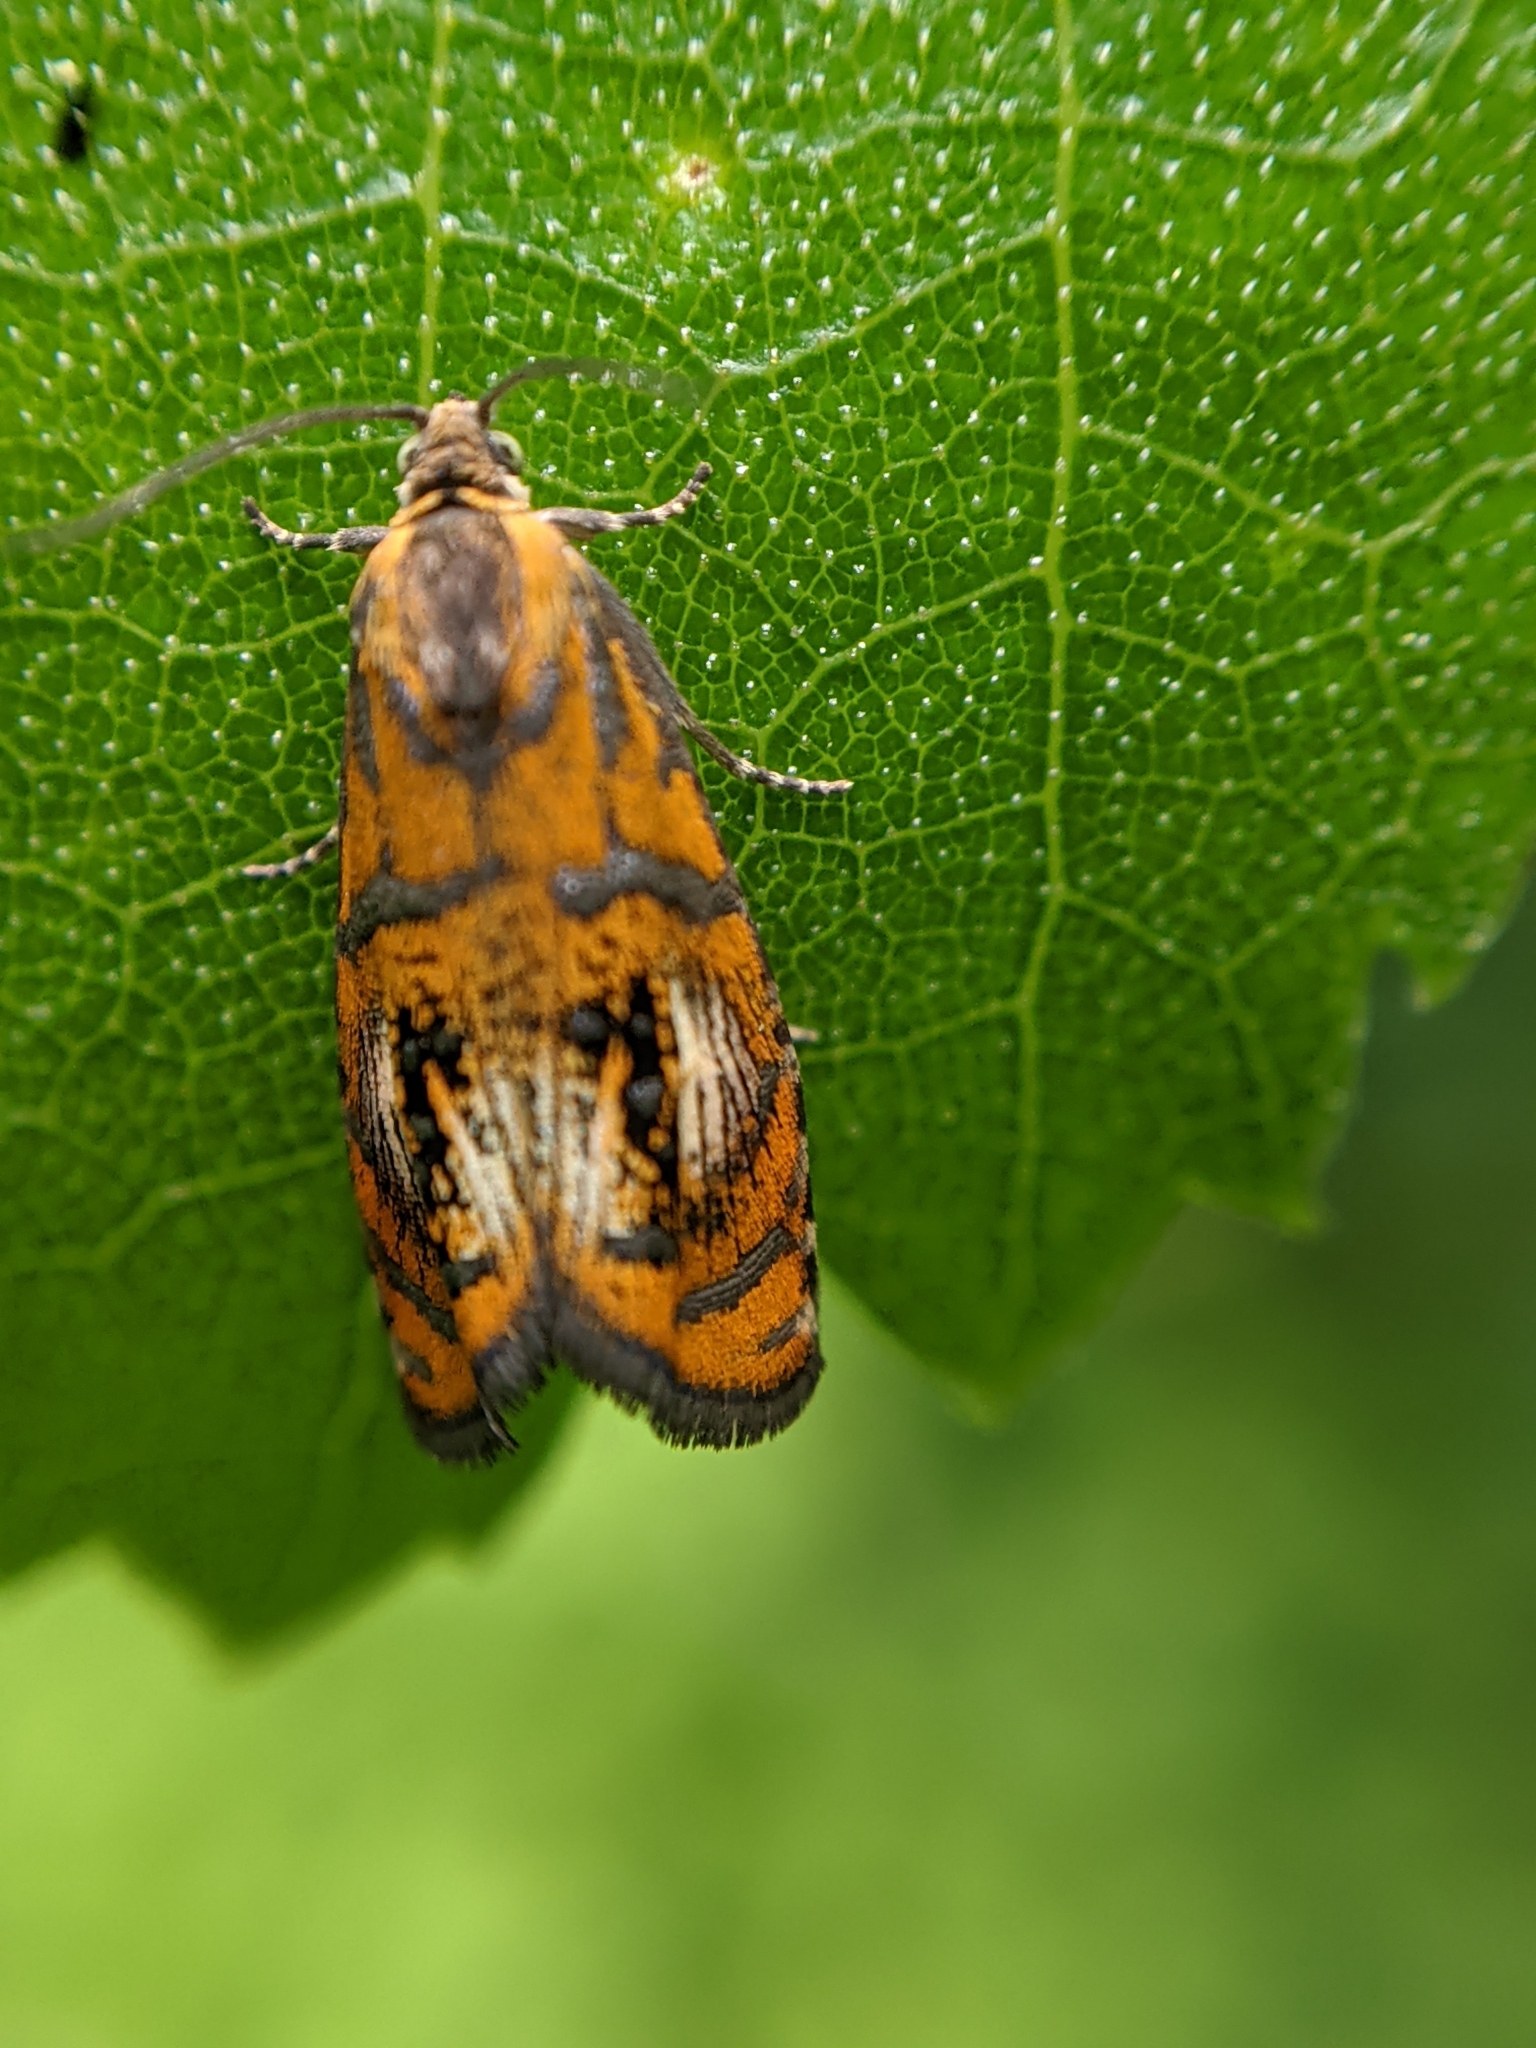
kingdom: Animalia
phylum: Arthropoda
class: Insecta
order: Lepidoptera
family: Tortricidae
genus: Olethreutes
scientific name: Olethreutes arcuella
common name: Arched marble
